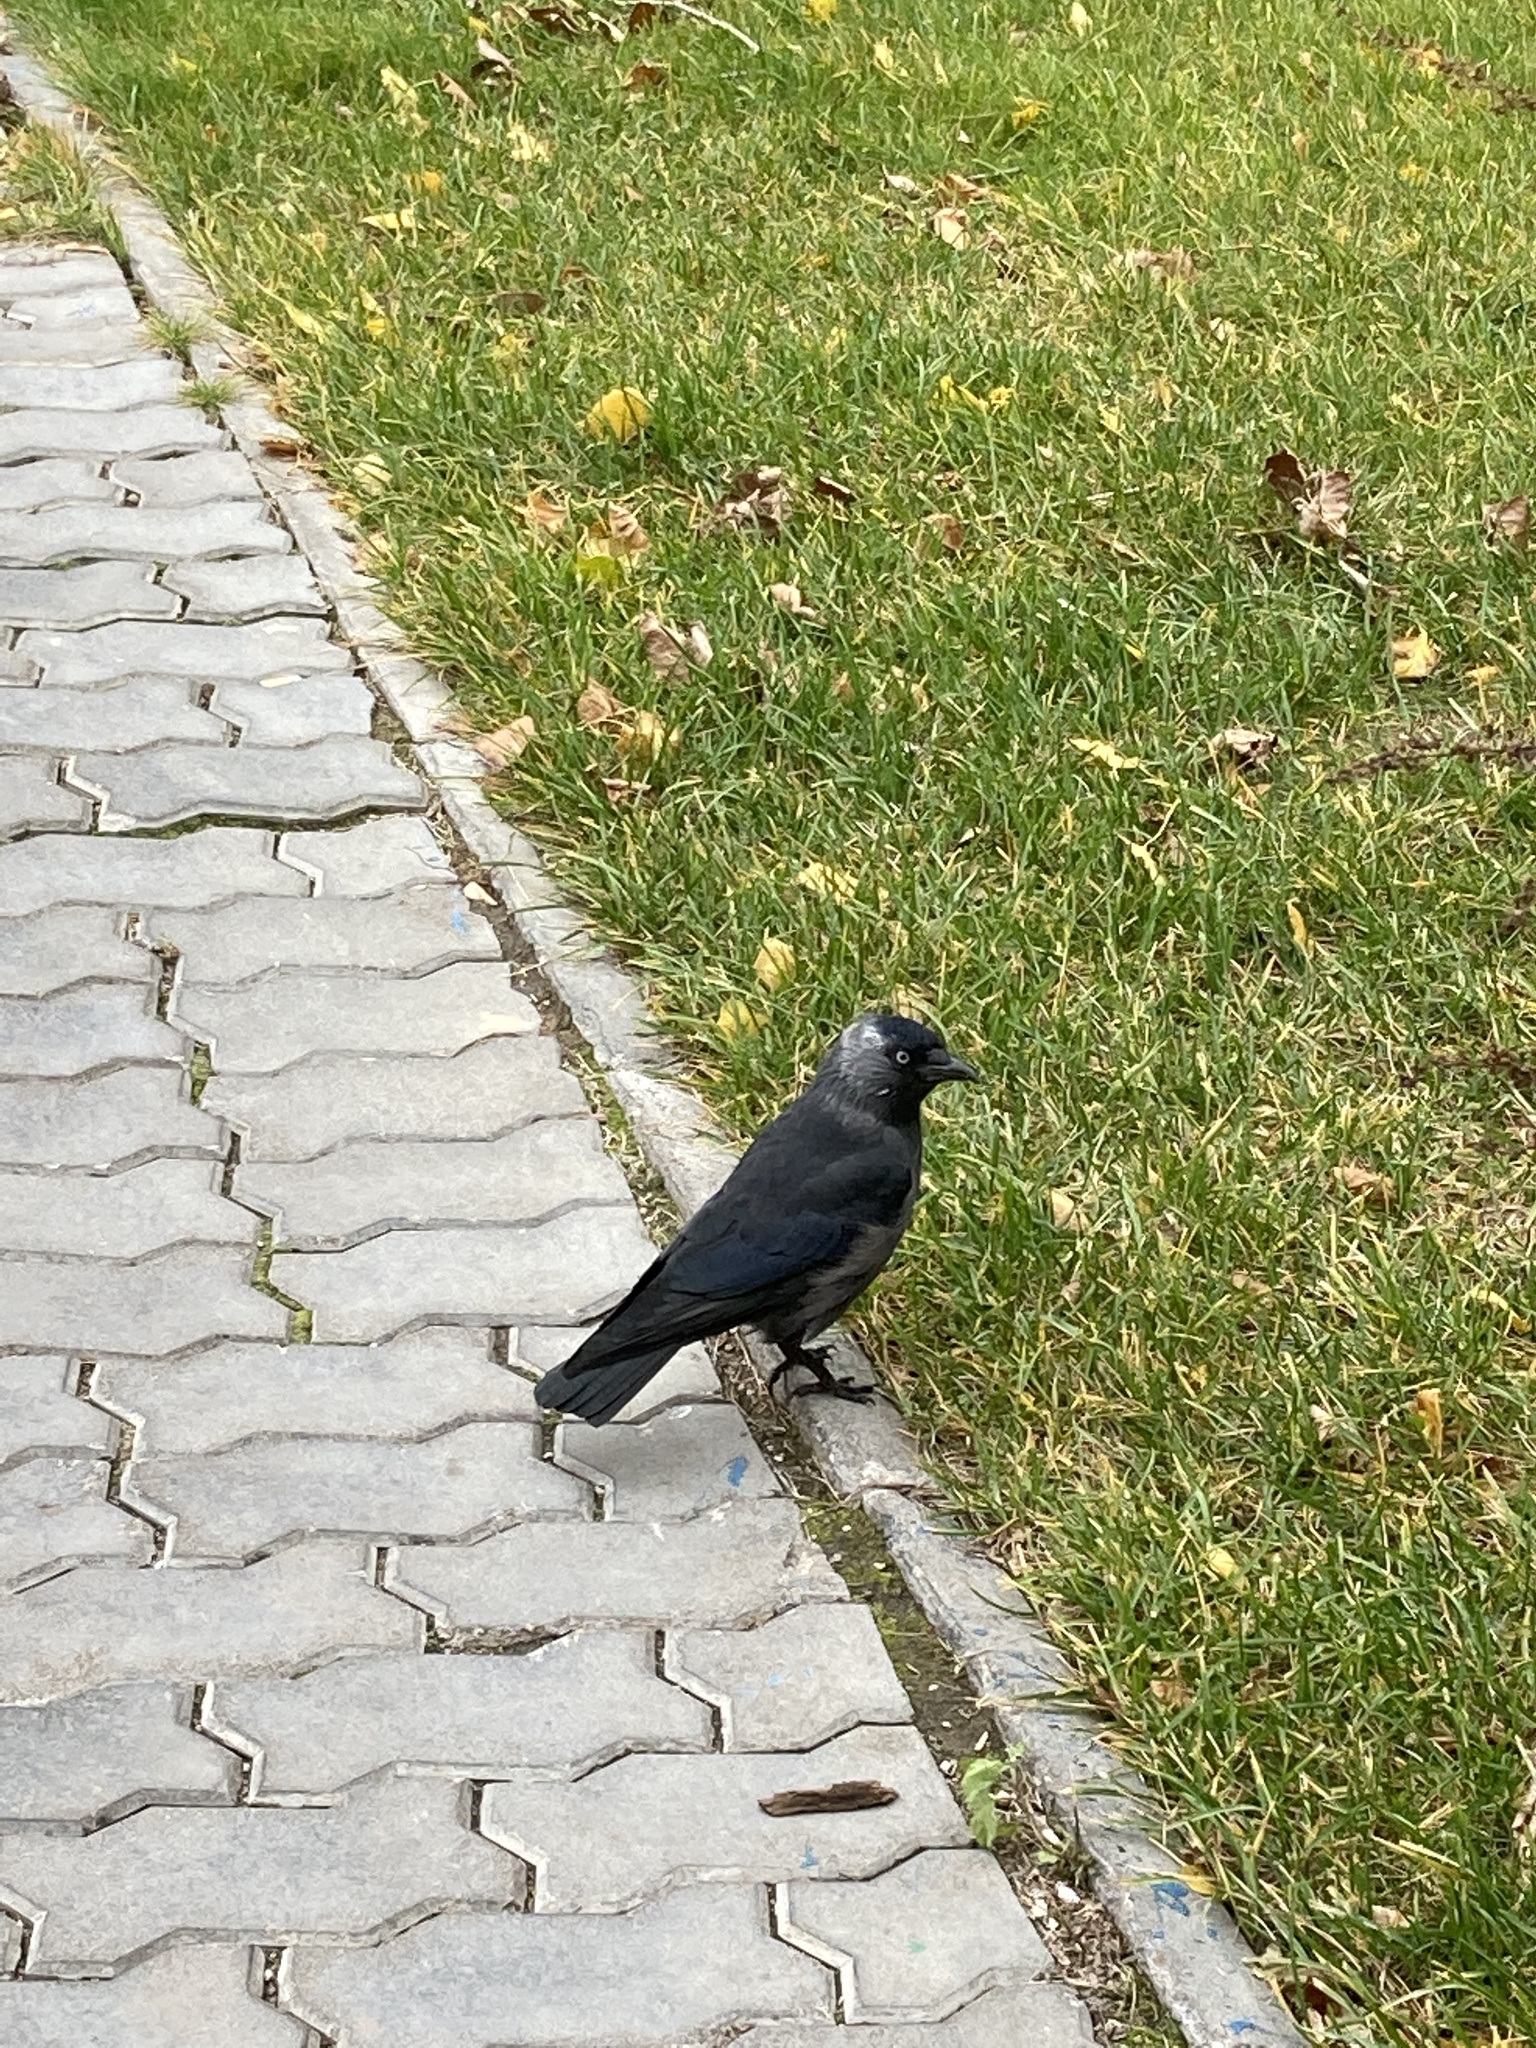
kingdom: Animalia
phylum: Chordata
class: Aves
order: Passeriformes
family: Corvidae
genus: Coloeus
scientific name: Coloeus monedula
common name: Western jackdaw
